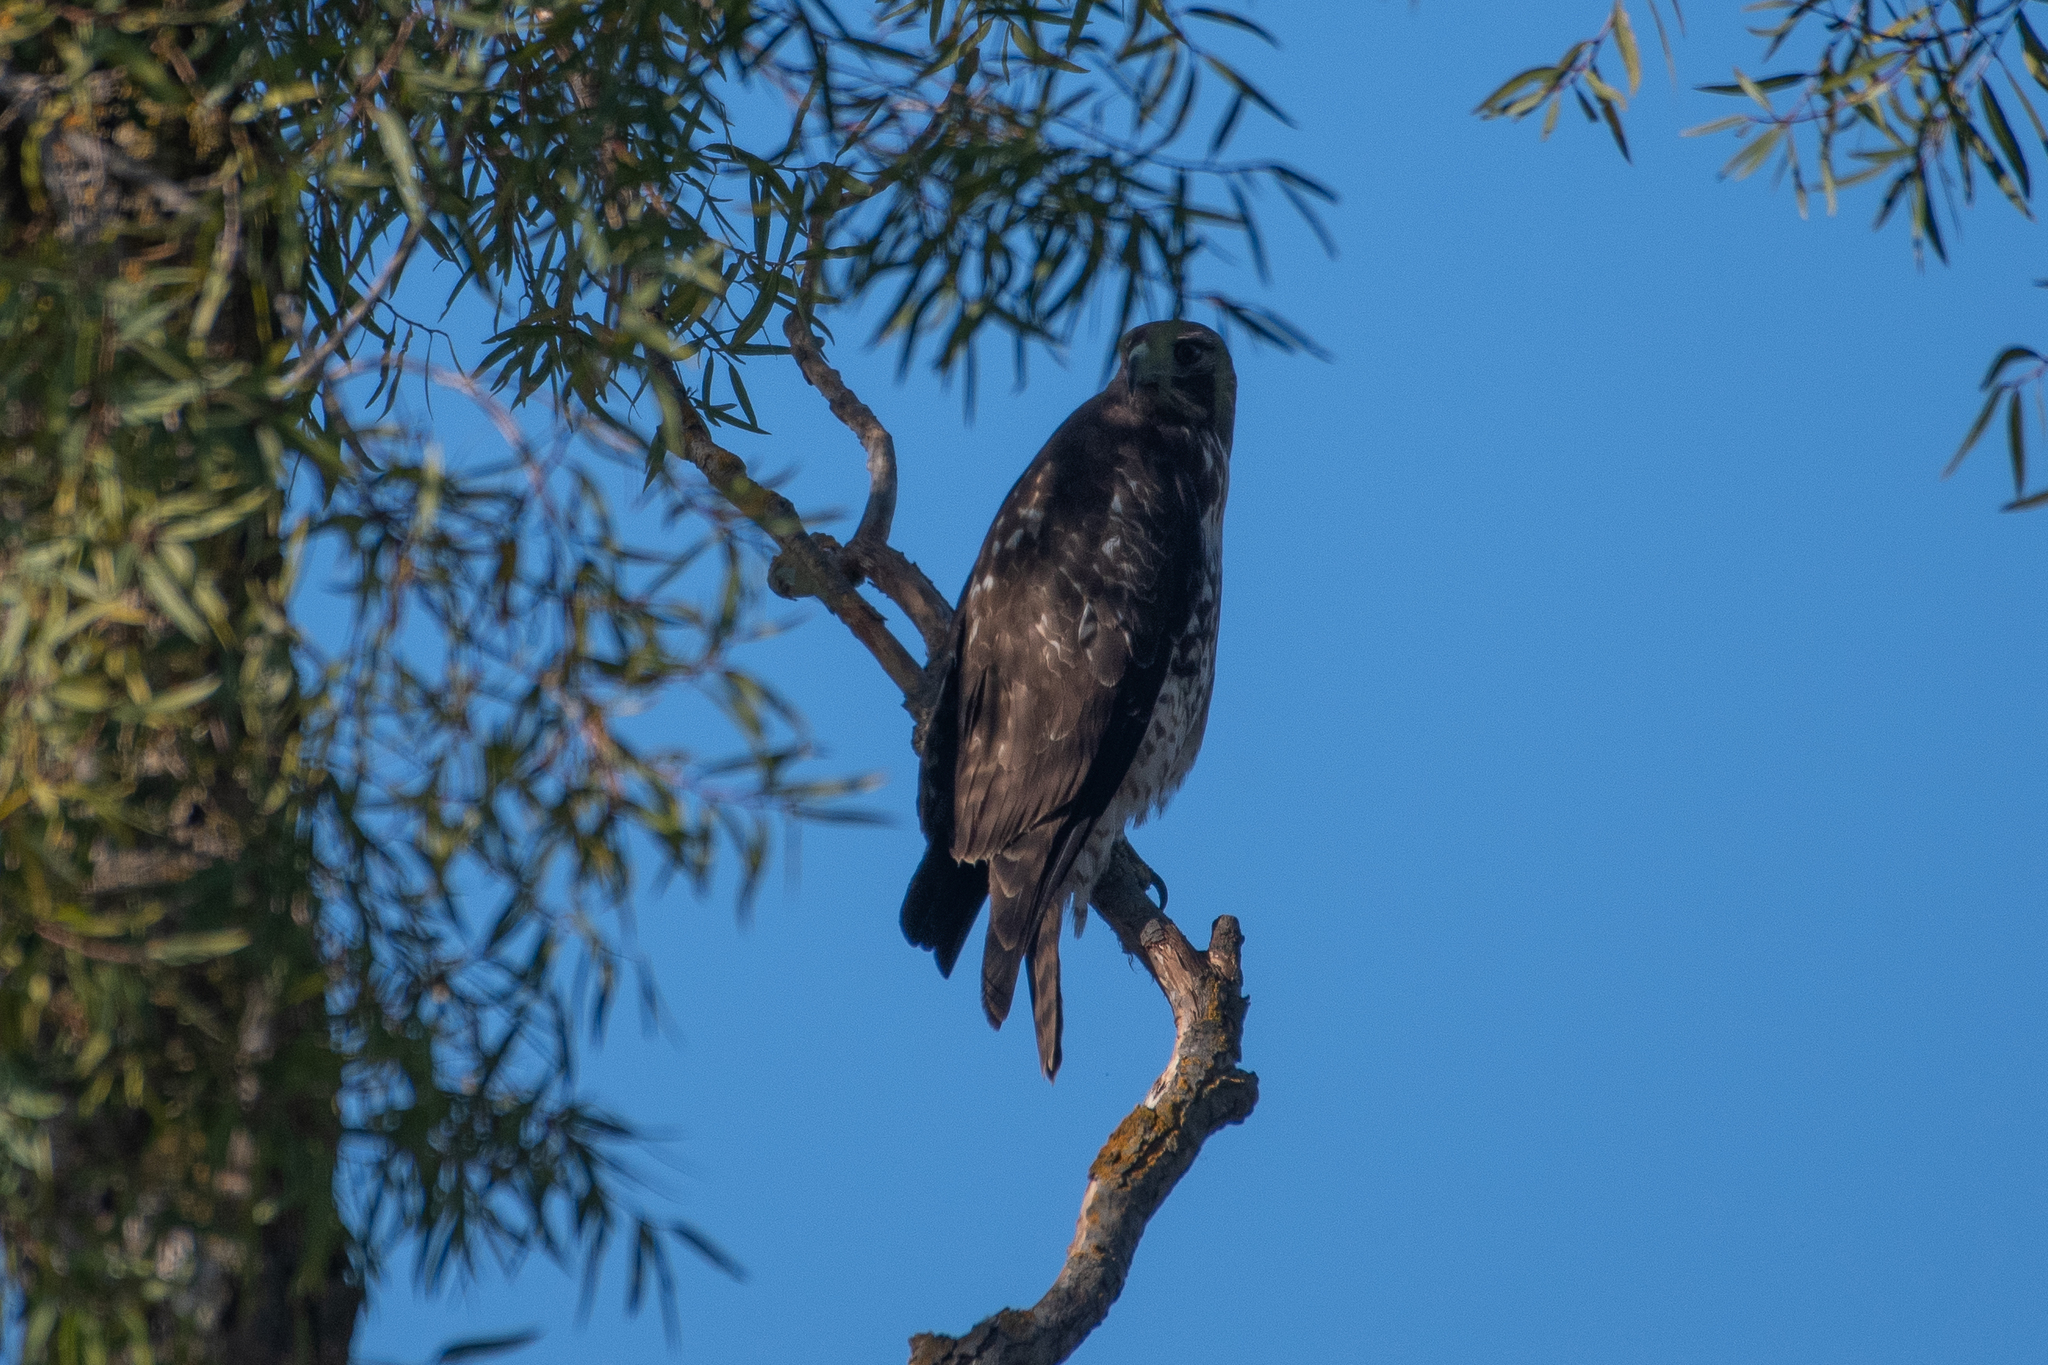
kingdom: Animalia
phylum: Chordata
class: Aves
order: Accipitriformes
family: Accipitridae
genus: Buteo
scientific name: Buteo jamaicensis
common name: Red-tailed hawk
